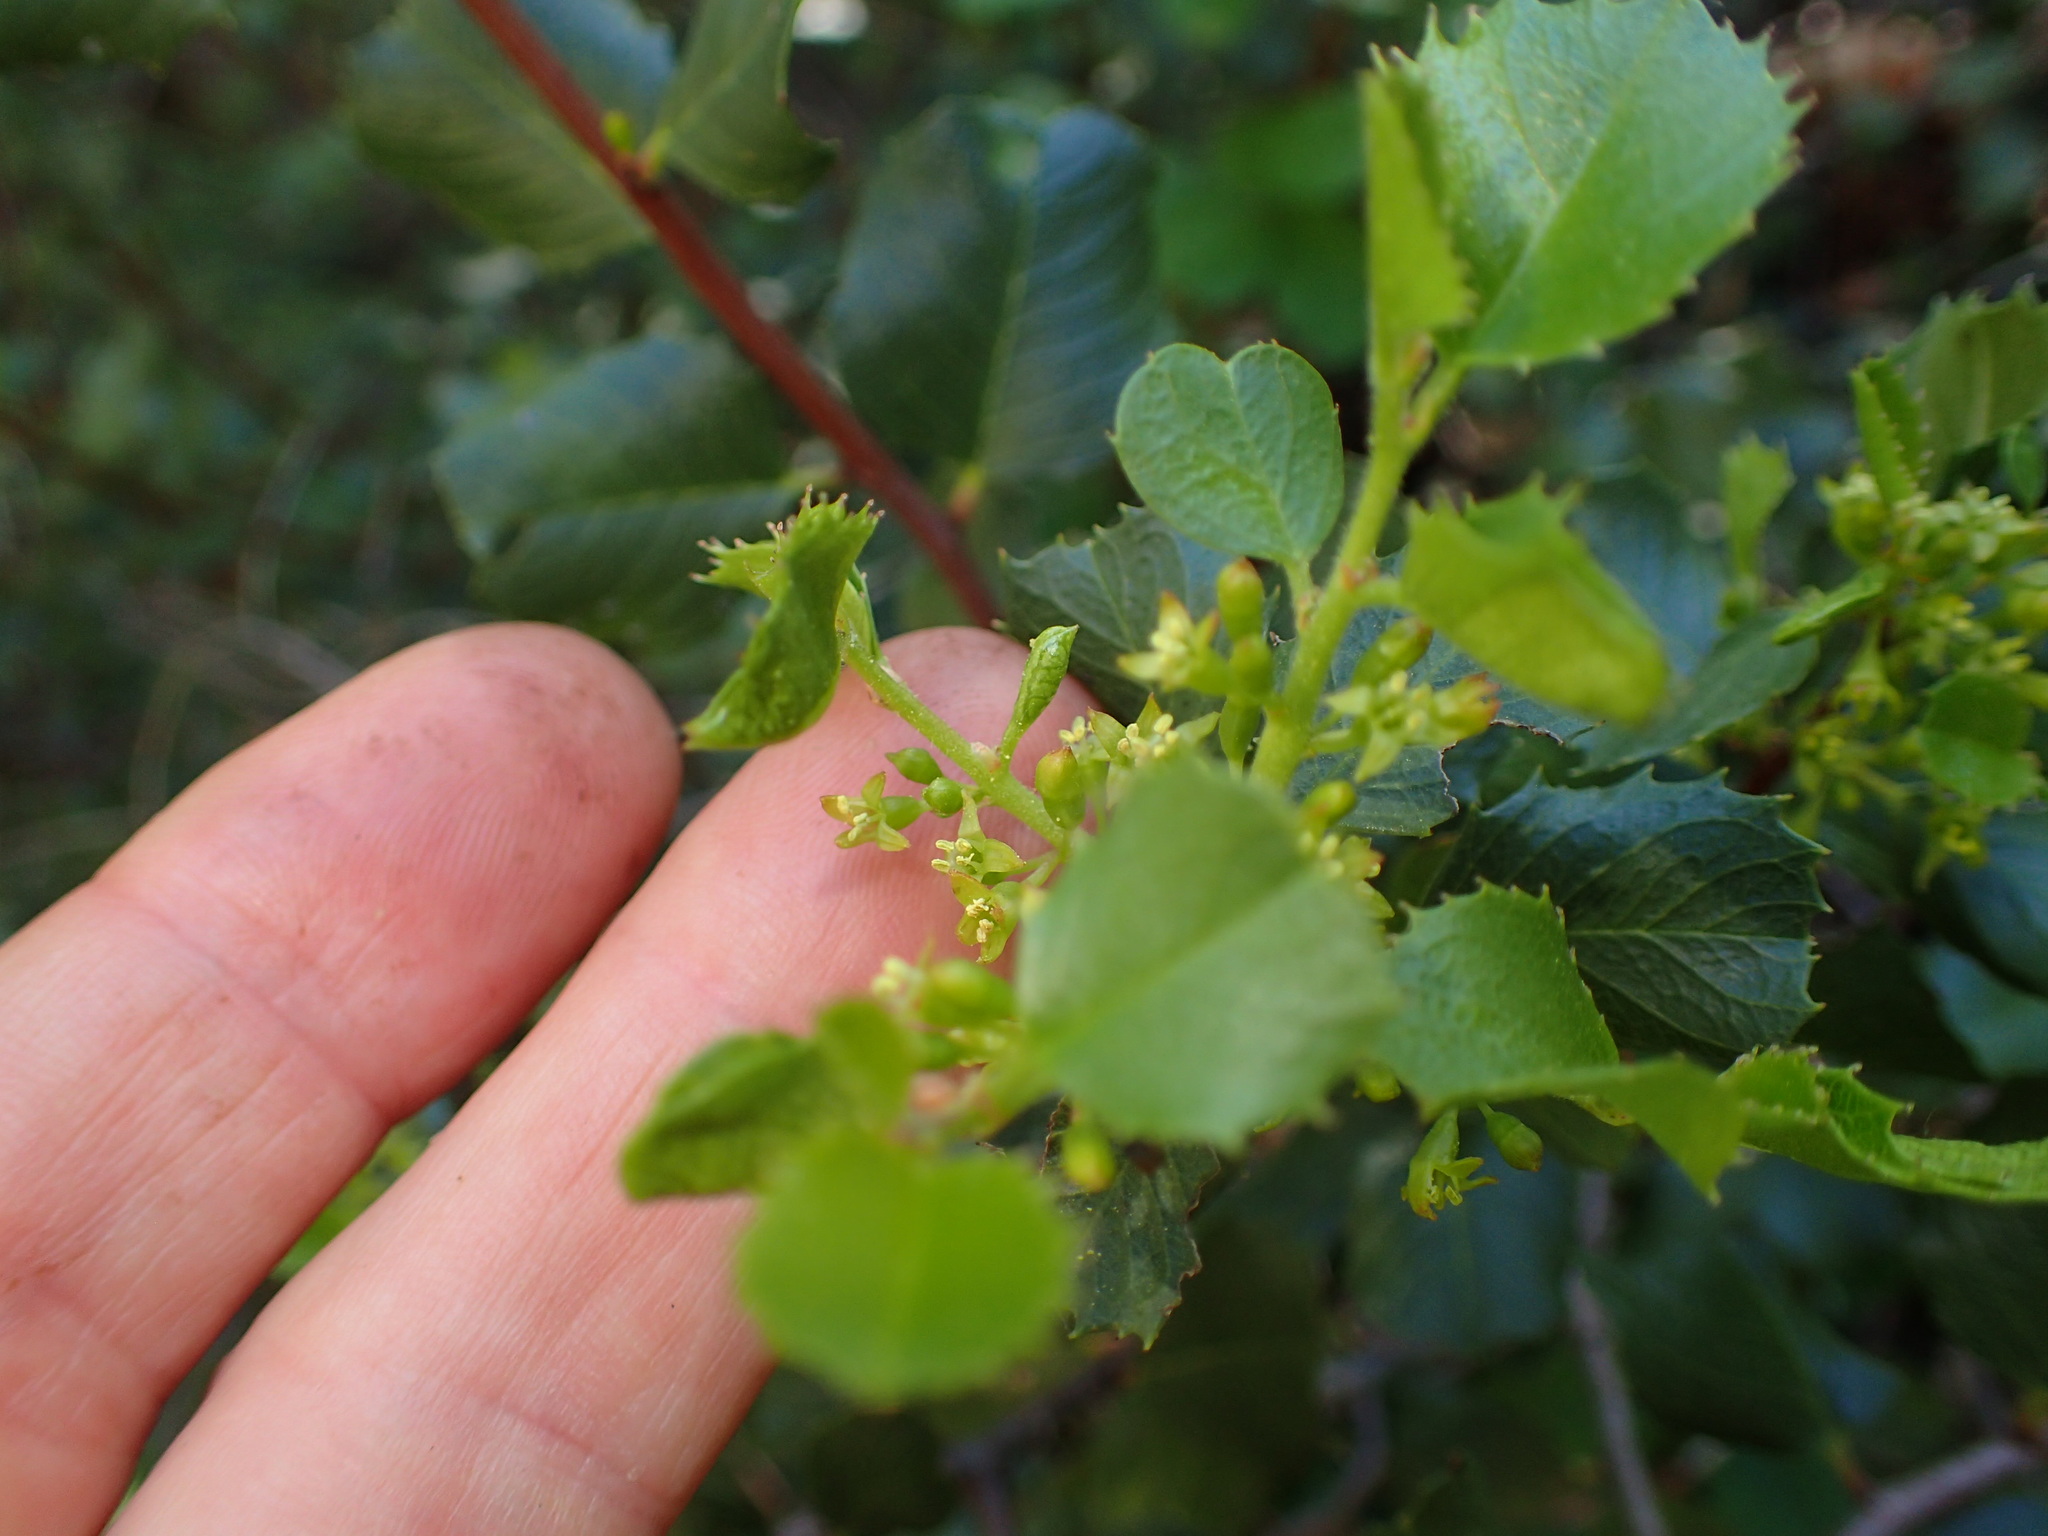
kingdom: Plantae
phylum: Tracheophyta
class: Magnoliopsida
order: Rosales
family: Rhamnaceae
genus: Endotropis
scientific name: Endotropis crocea
